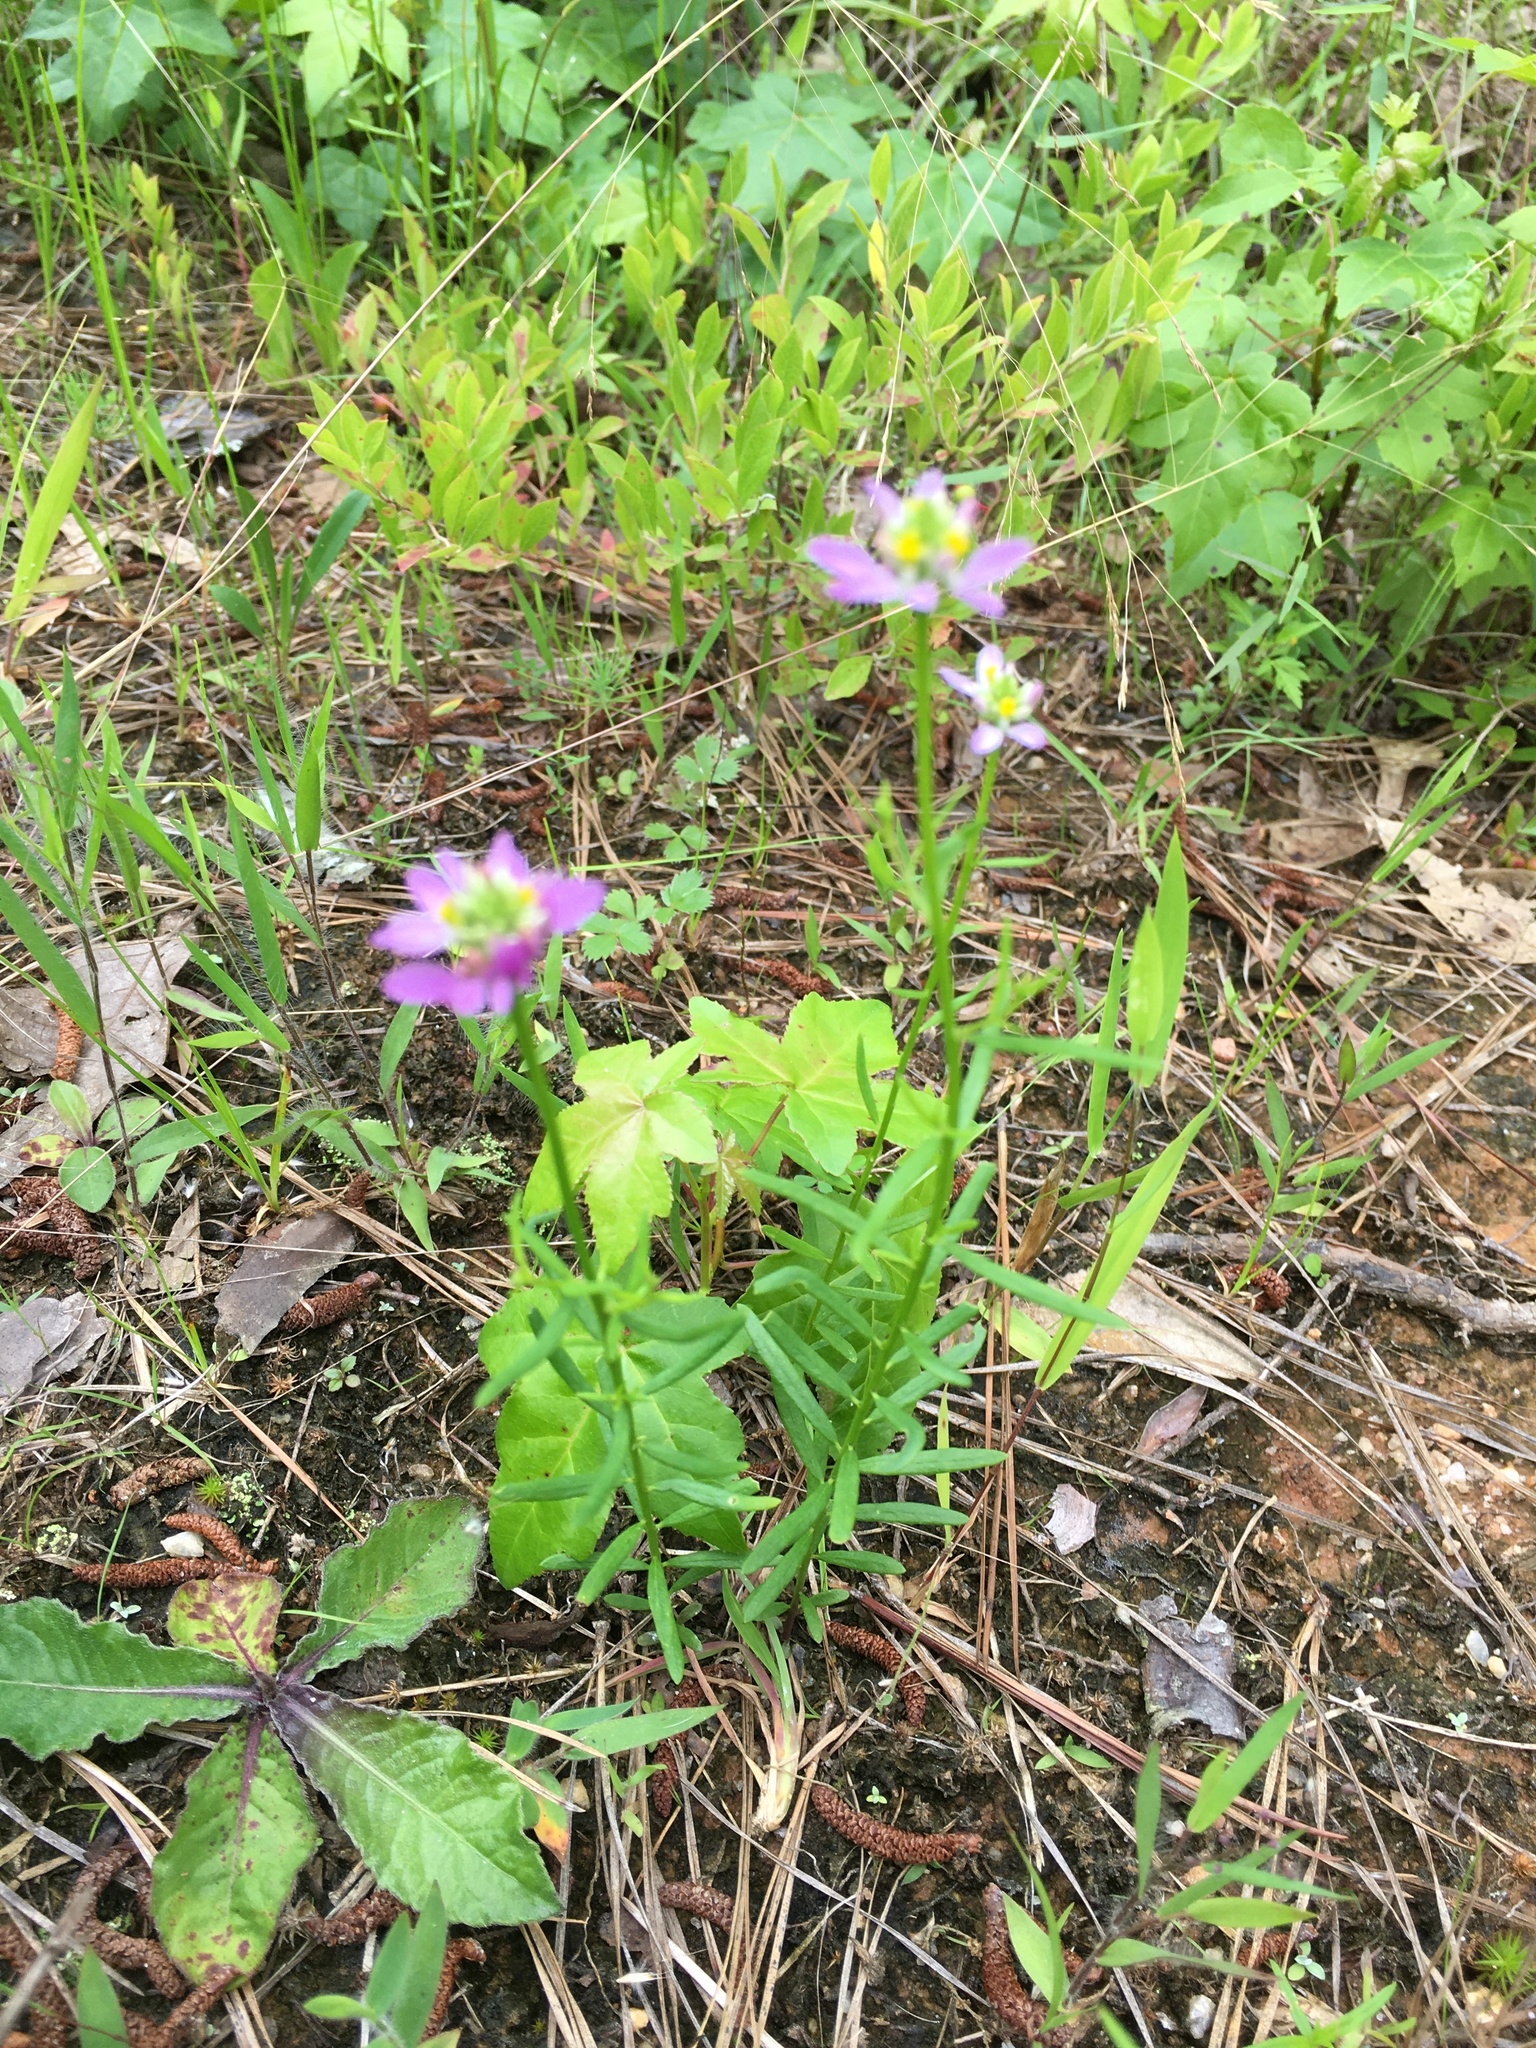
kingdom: Plantae
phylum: Tracheophyta
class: Magnoliopsida
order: Fabales
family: Polygalaceae
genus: Polygala
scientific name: Polygala curtissii
